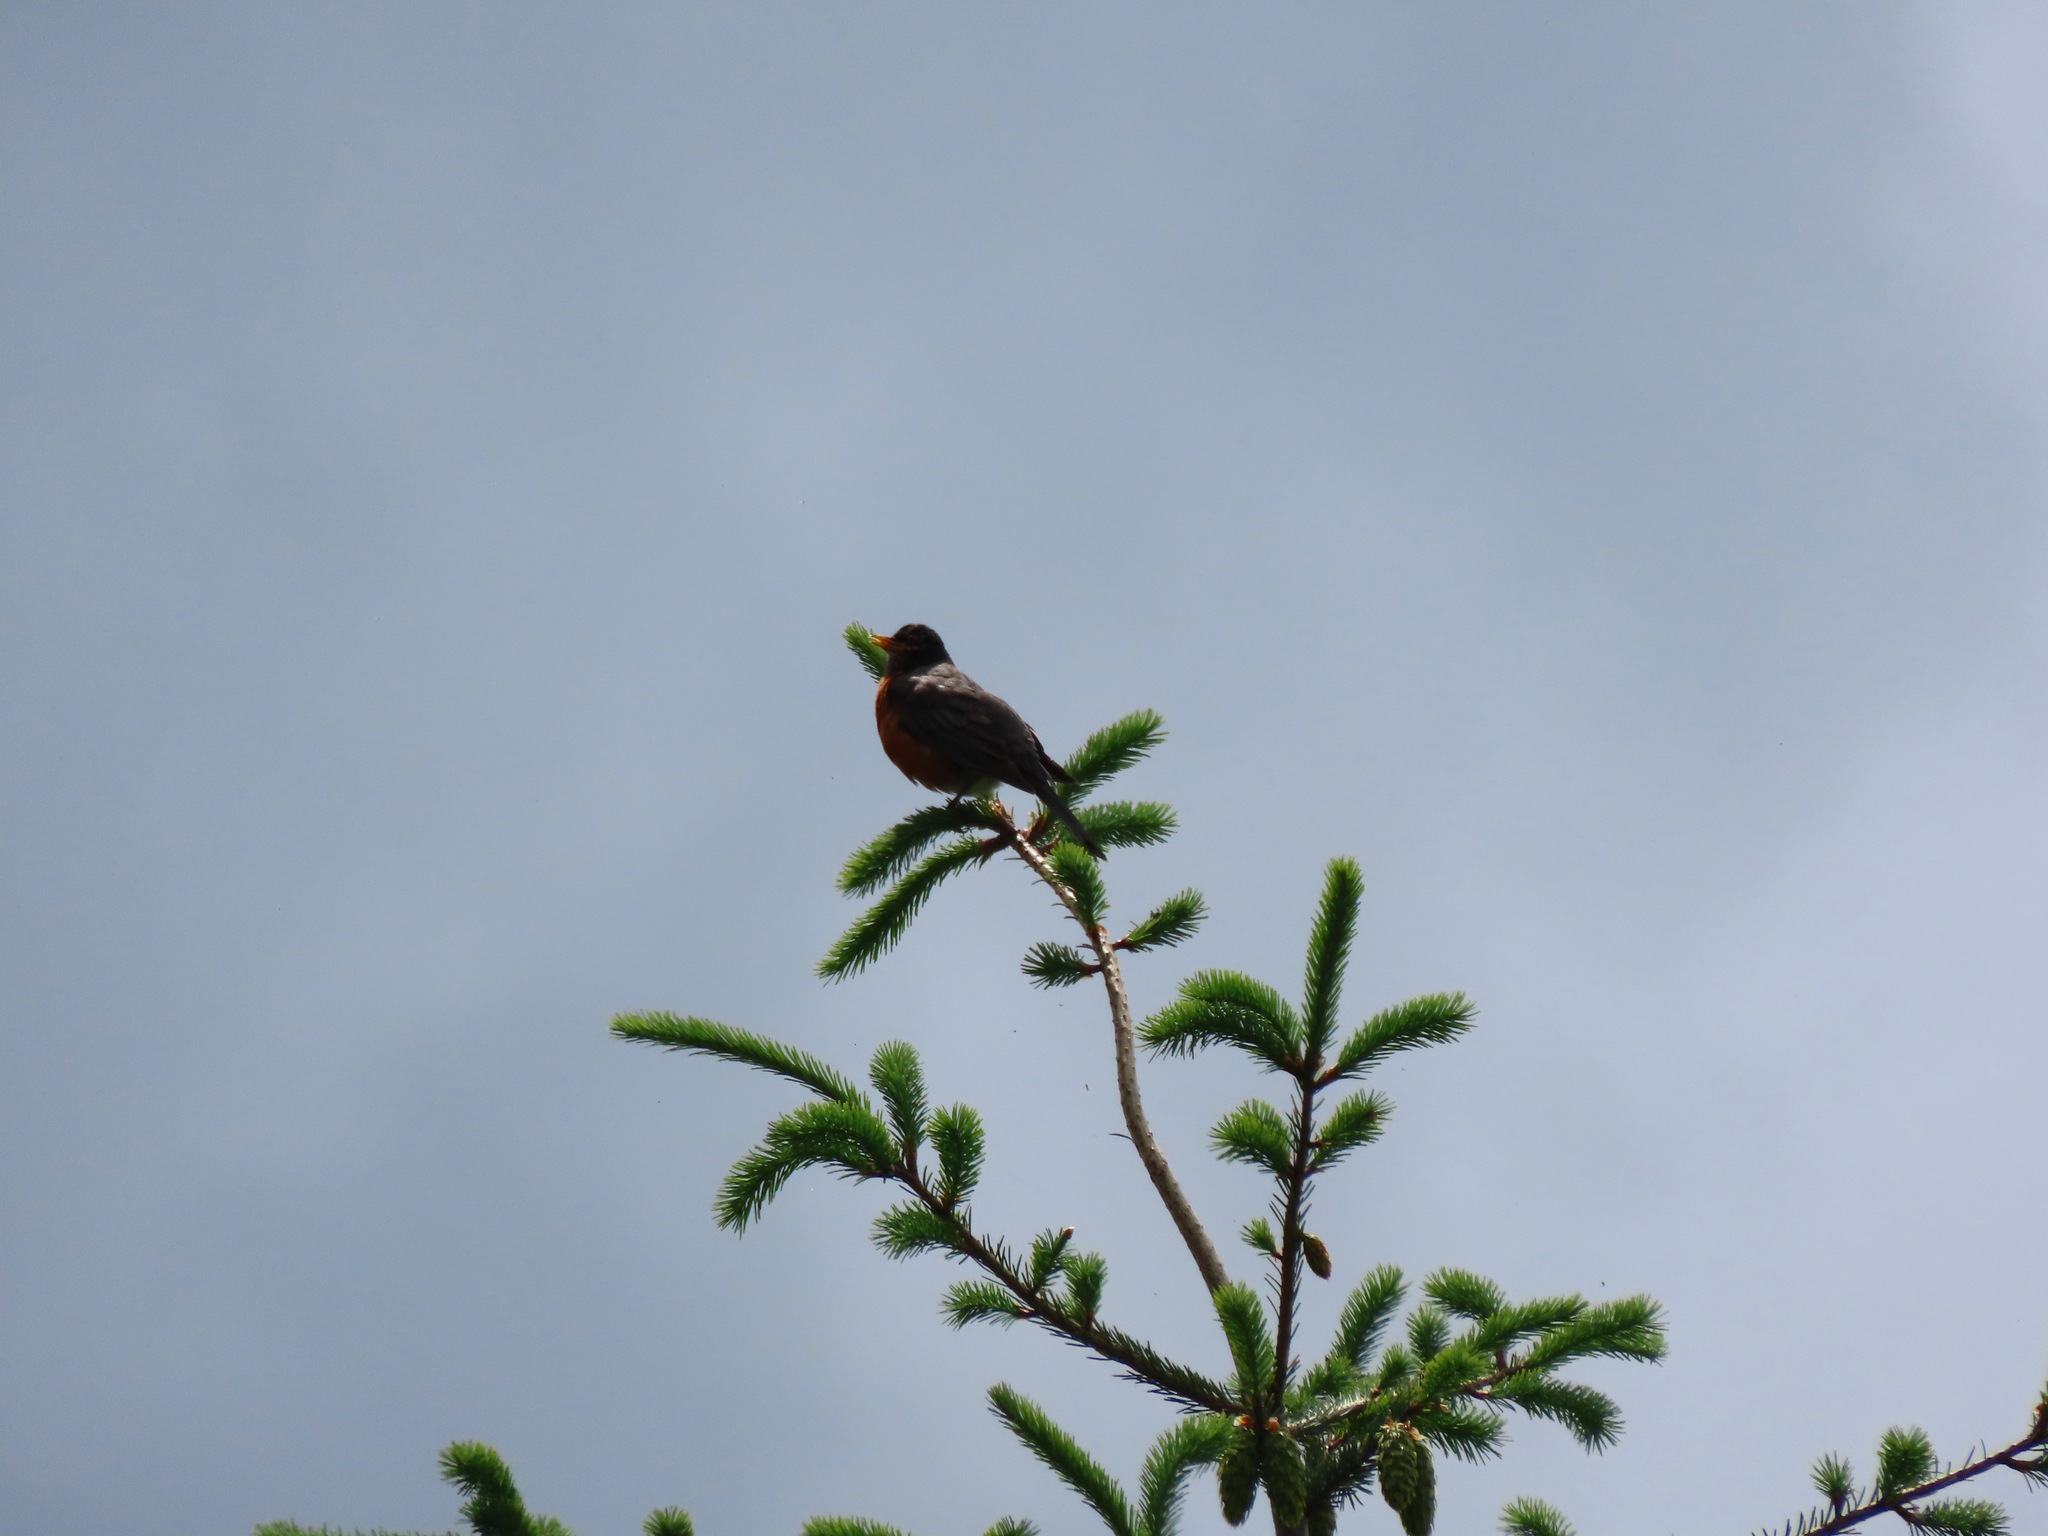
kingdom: Animalia
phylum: Chordata
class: Aves
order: Passeriformes
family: Turdidae
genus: Turdus
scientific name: Turdus migratorius
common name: American robin
